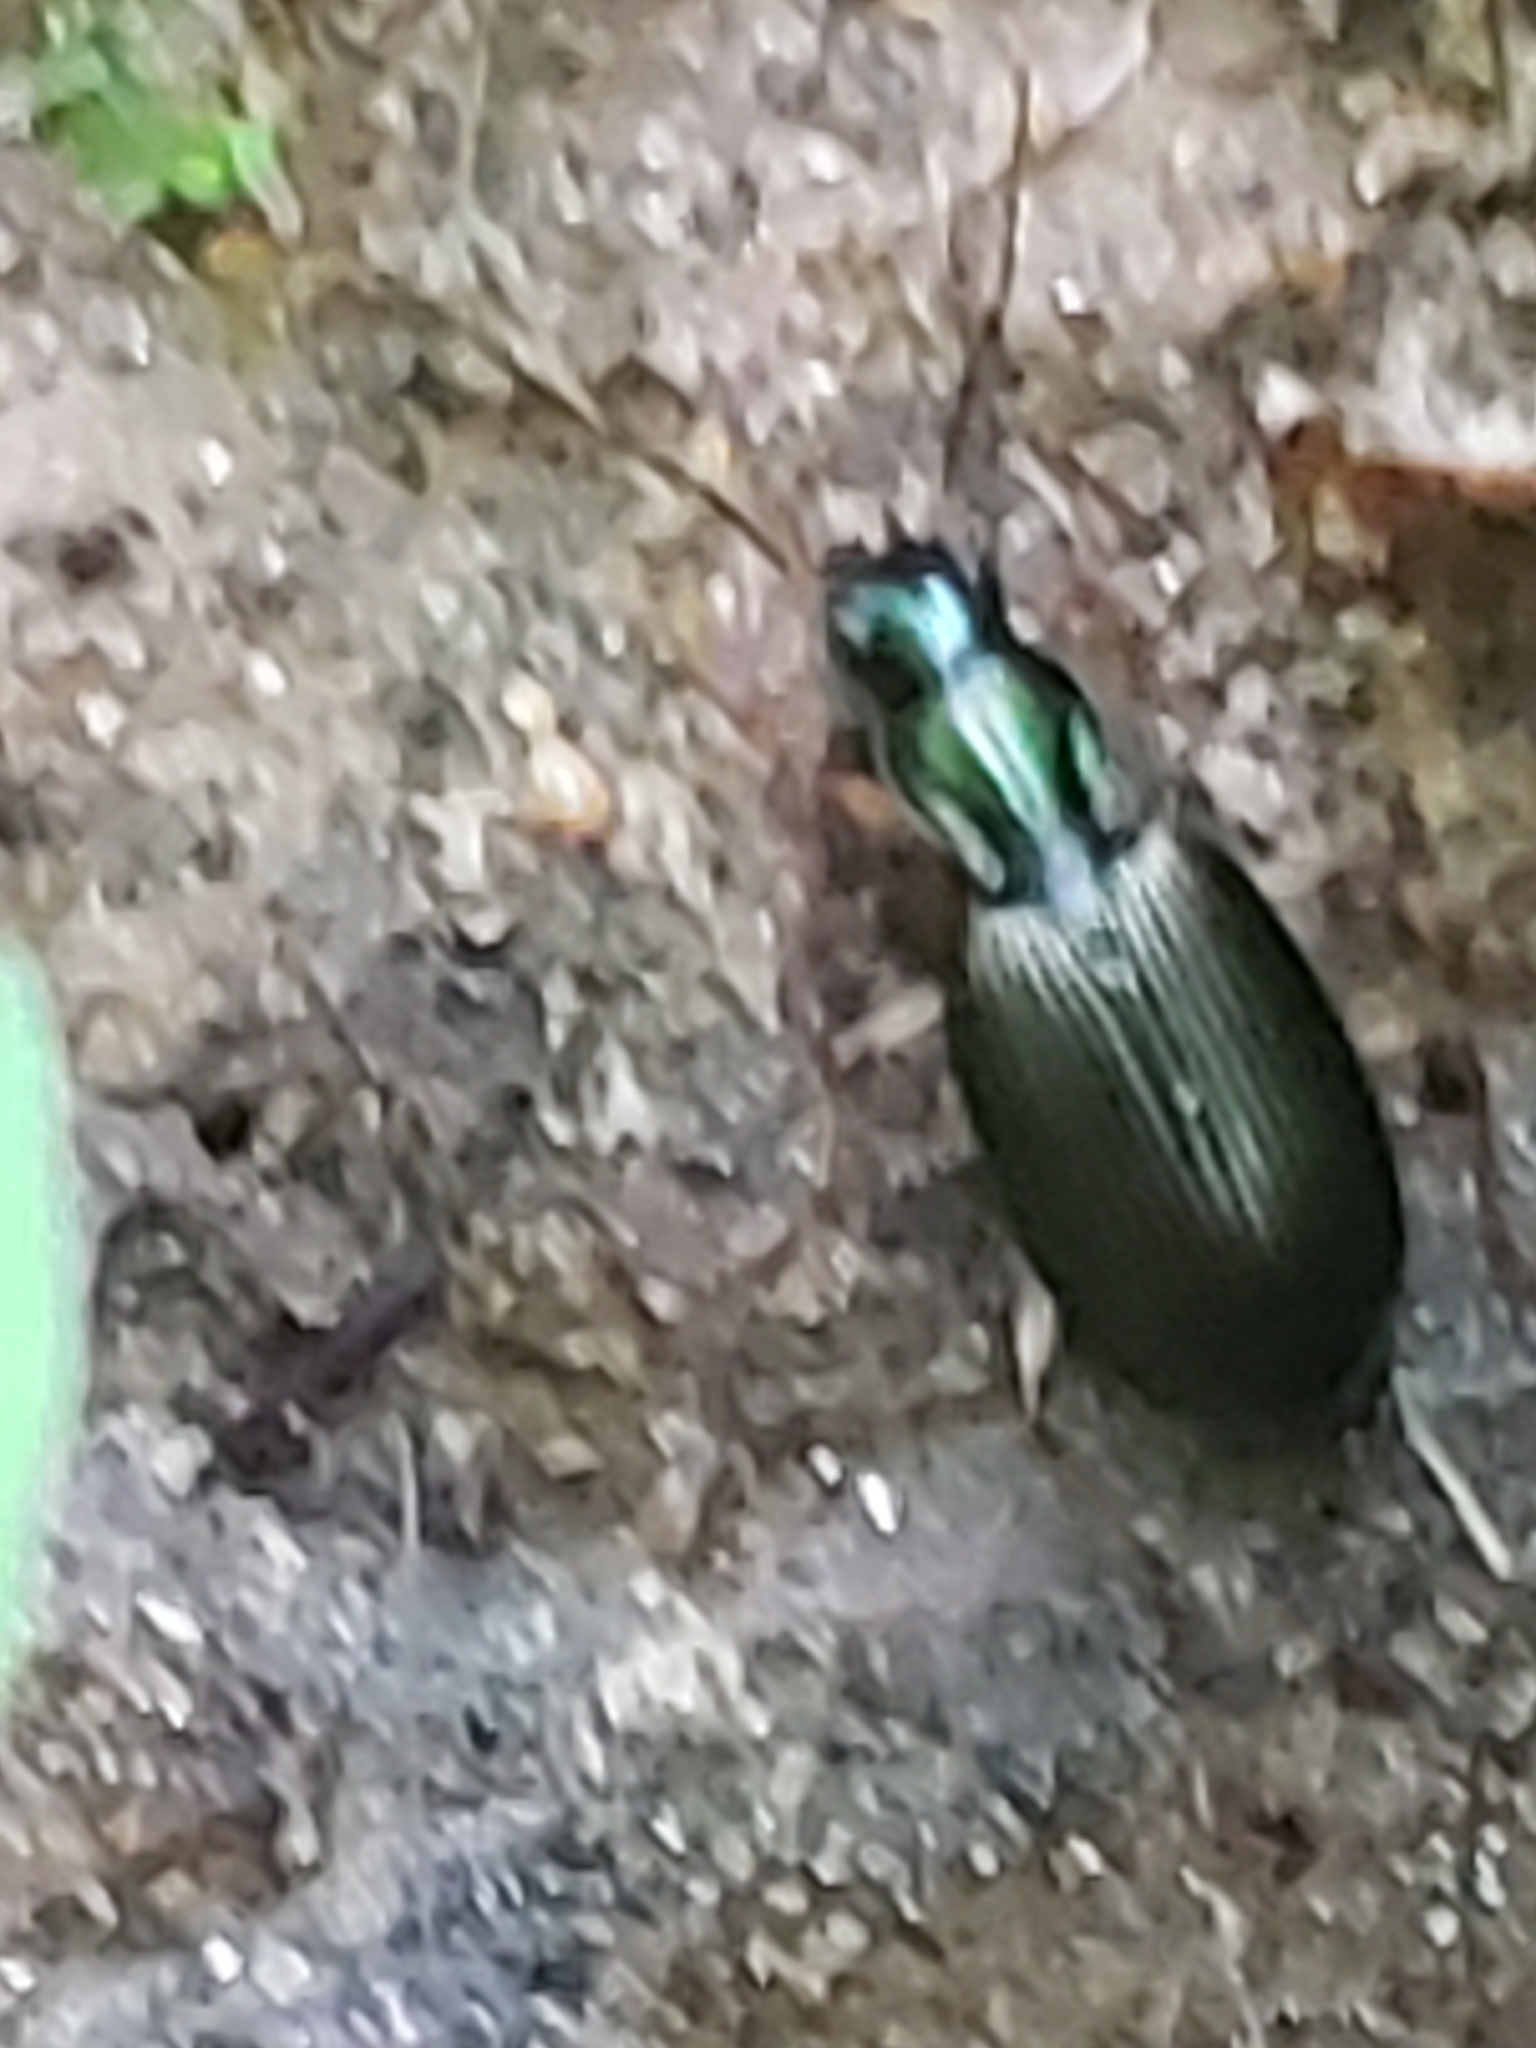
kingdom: Animalia
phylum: Arthropoda
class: Insecta
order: Coleoptera
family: Carabidae
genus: Agonum
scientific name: Agonum extensicolle
